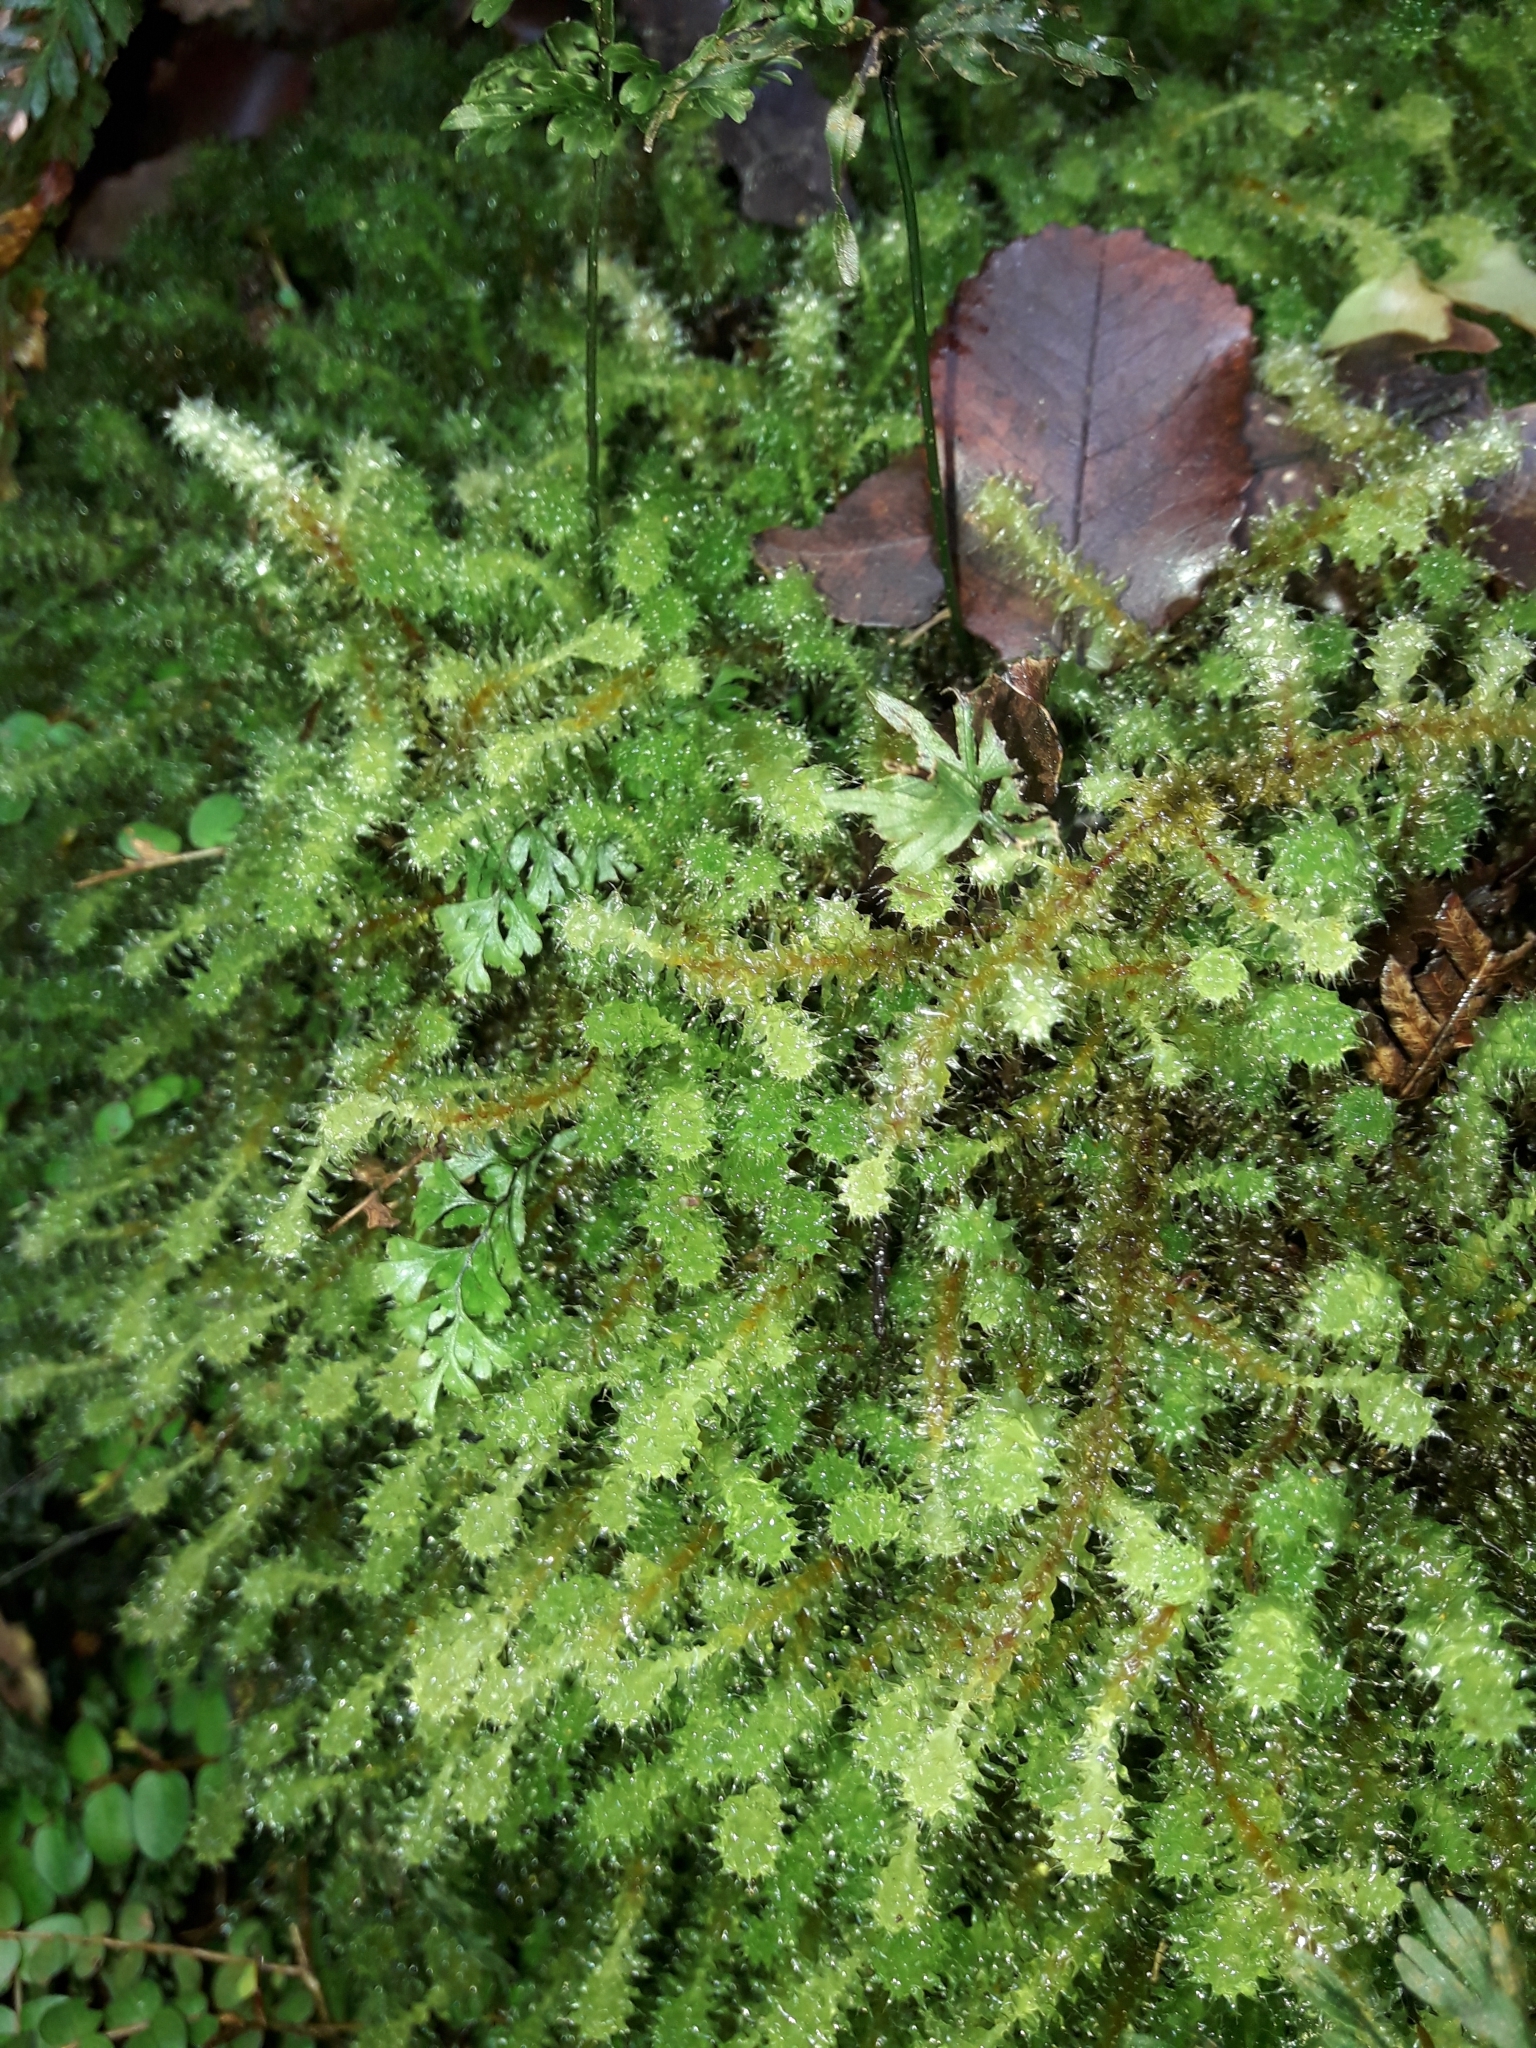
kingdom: Plantae
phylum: Bryophyta
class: Bryopsida
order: Ptychomniales
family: Ptychomniaceae
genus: Ptychomnion
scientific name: Ptychomnion aciculare
